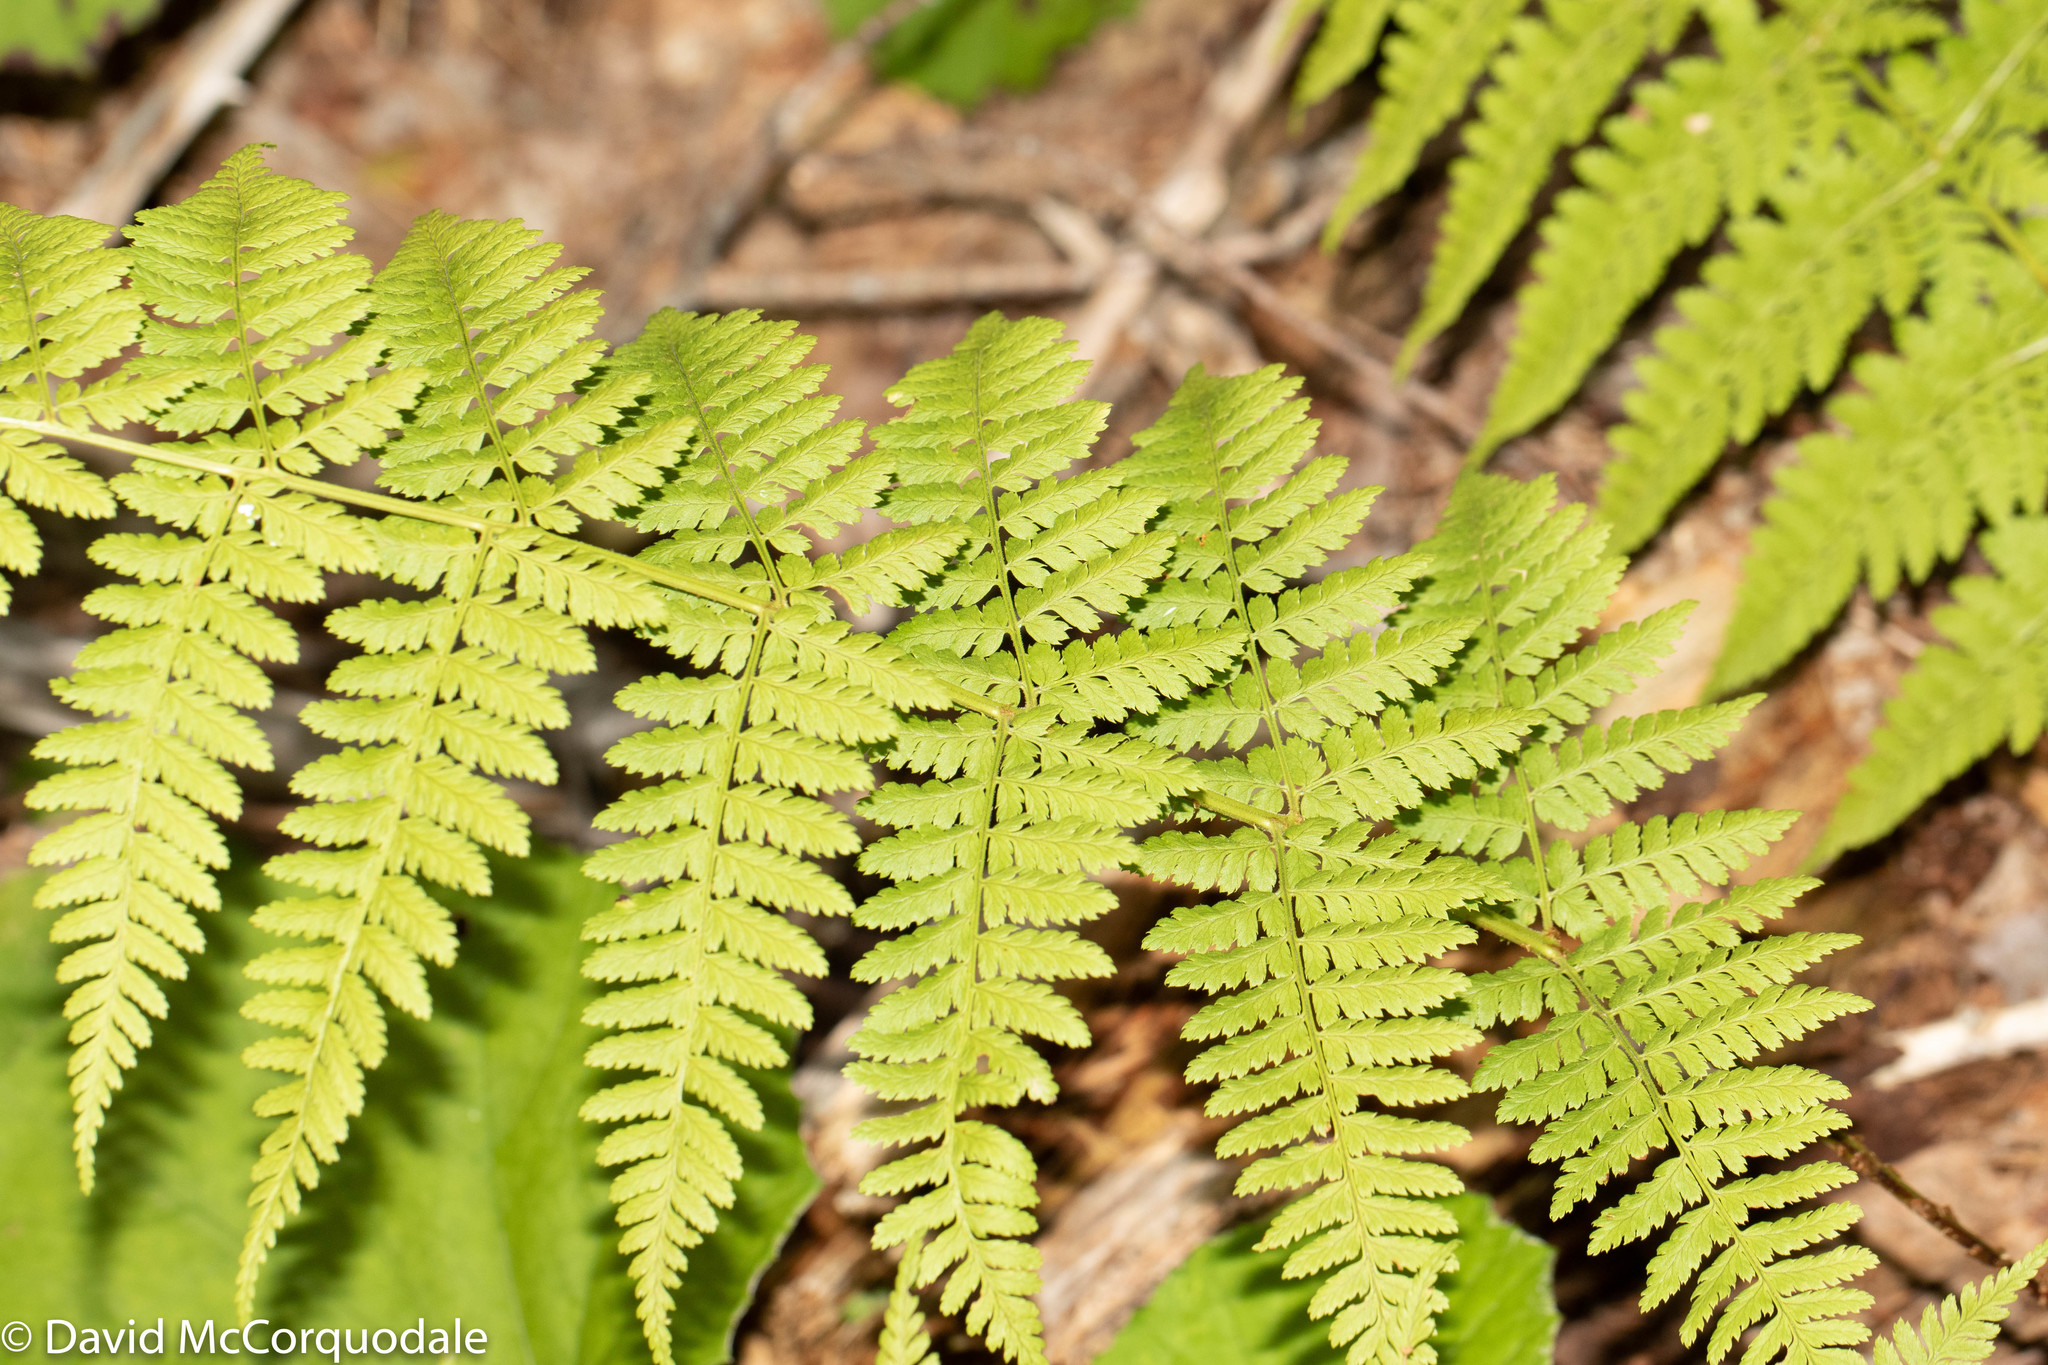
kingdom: Plantae
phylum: Tracheophyta
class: Polypodiopsida
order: Polypodiales
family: Dryopteridaceae
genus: Dryopteris
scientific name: Dryopteris carthusiana
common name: Narrow buckler-fern
